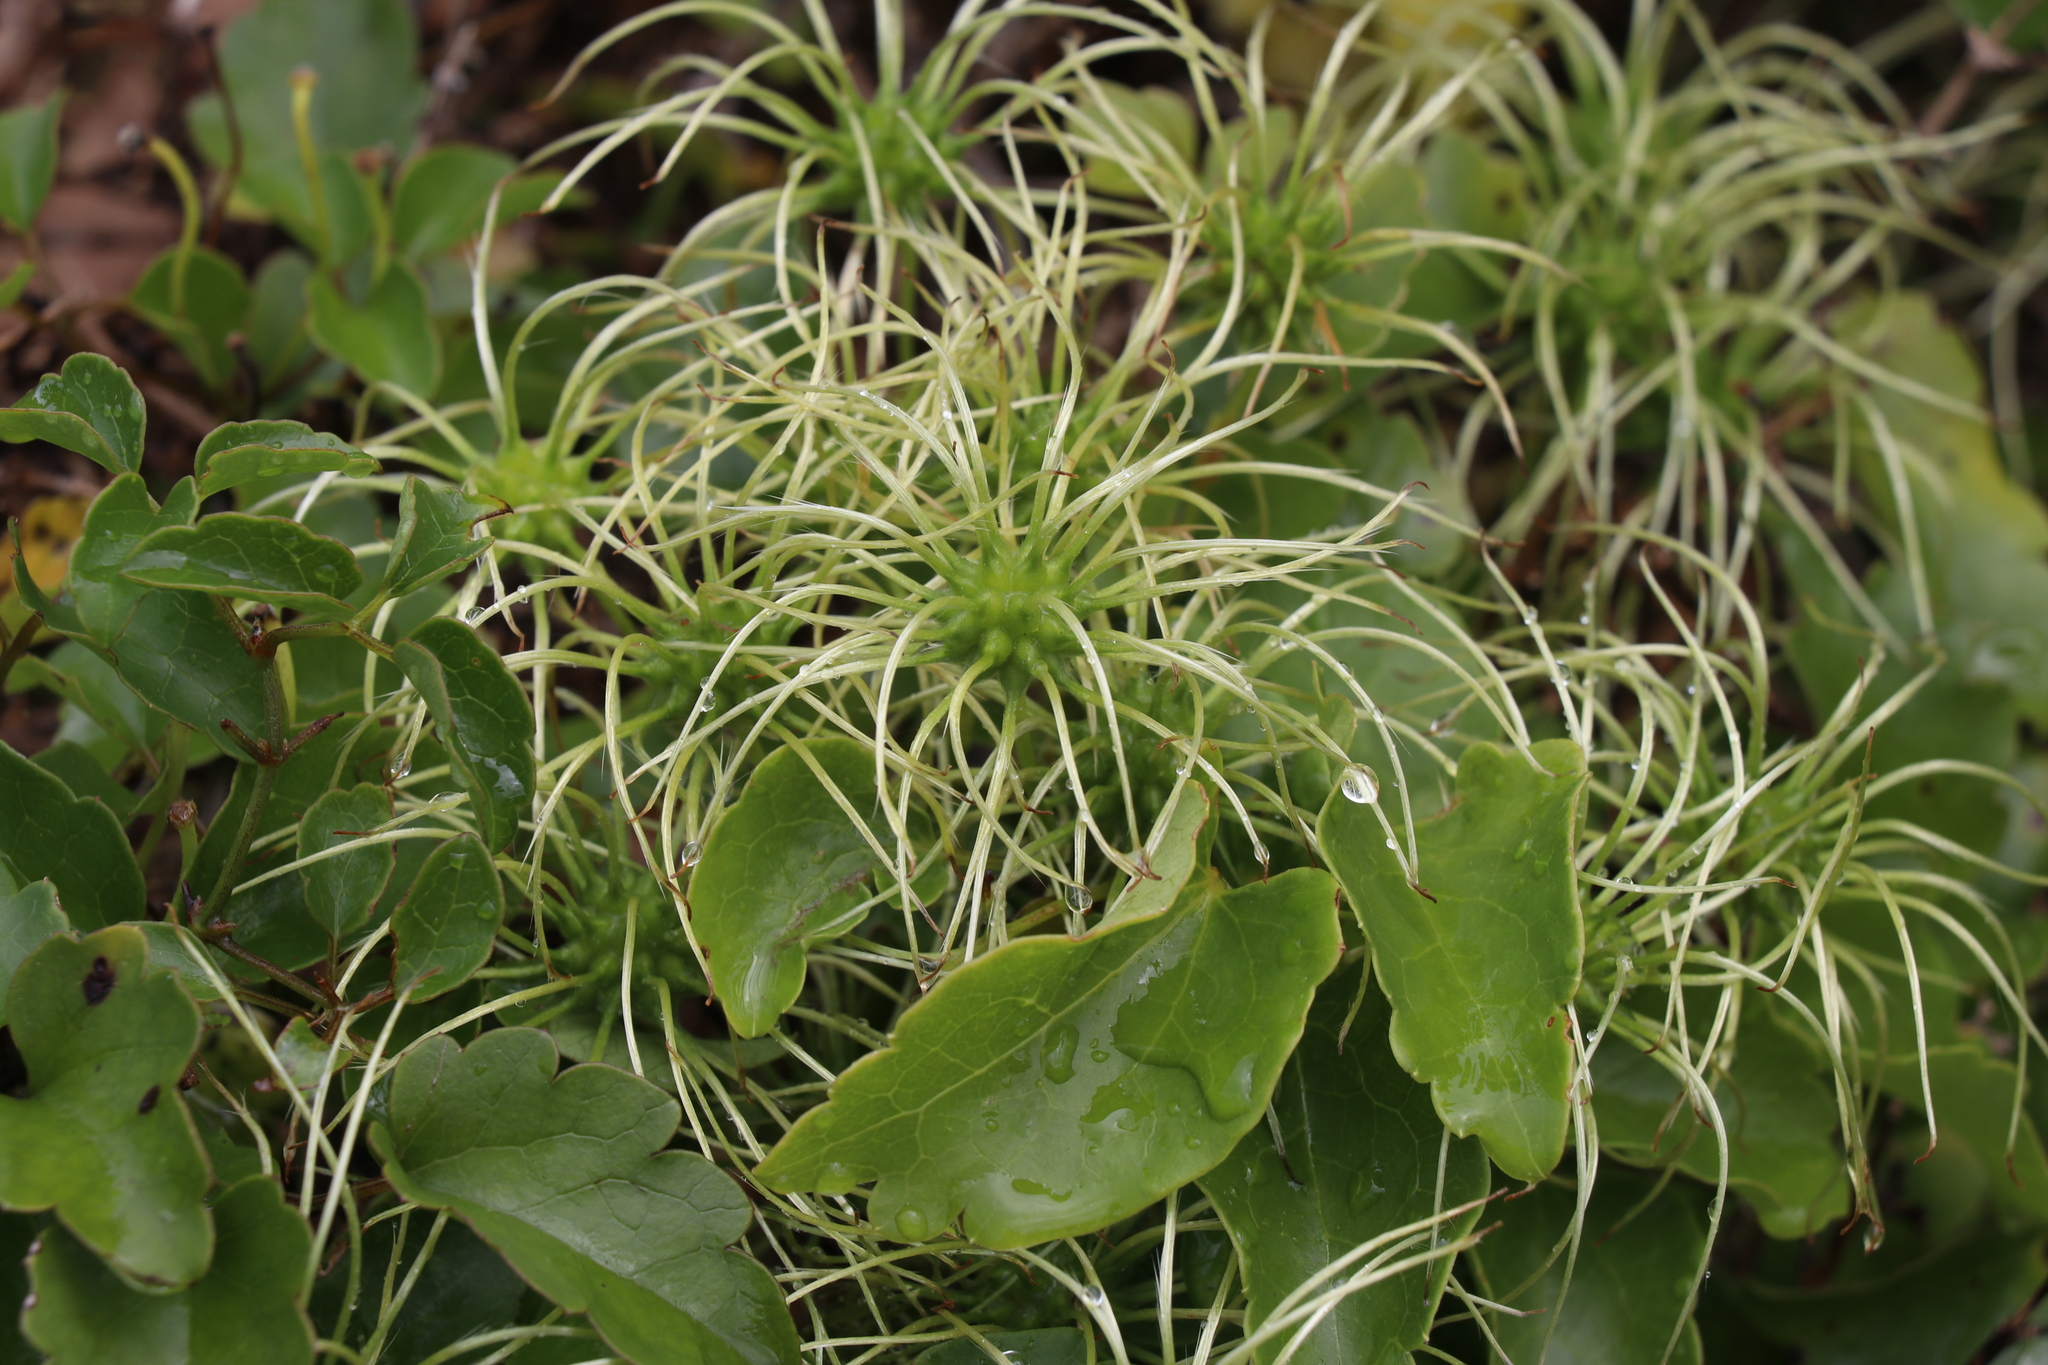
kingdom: Plantae
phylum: Tracheophyta
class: Magnoliopsida
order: Ranunculales
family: Ranunculaceae
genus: Clematis
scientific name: Clematis forsteri
